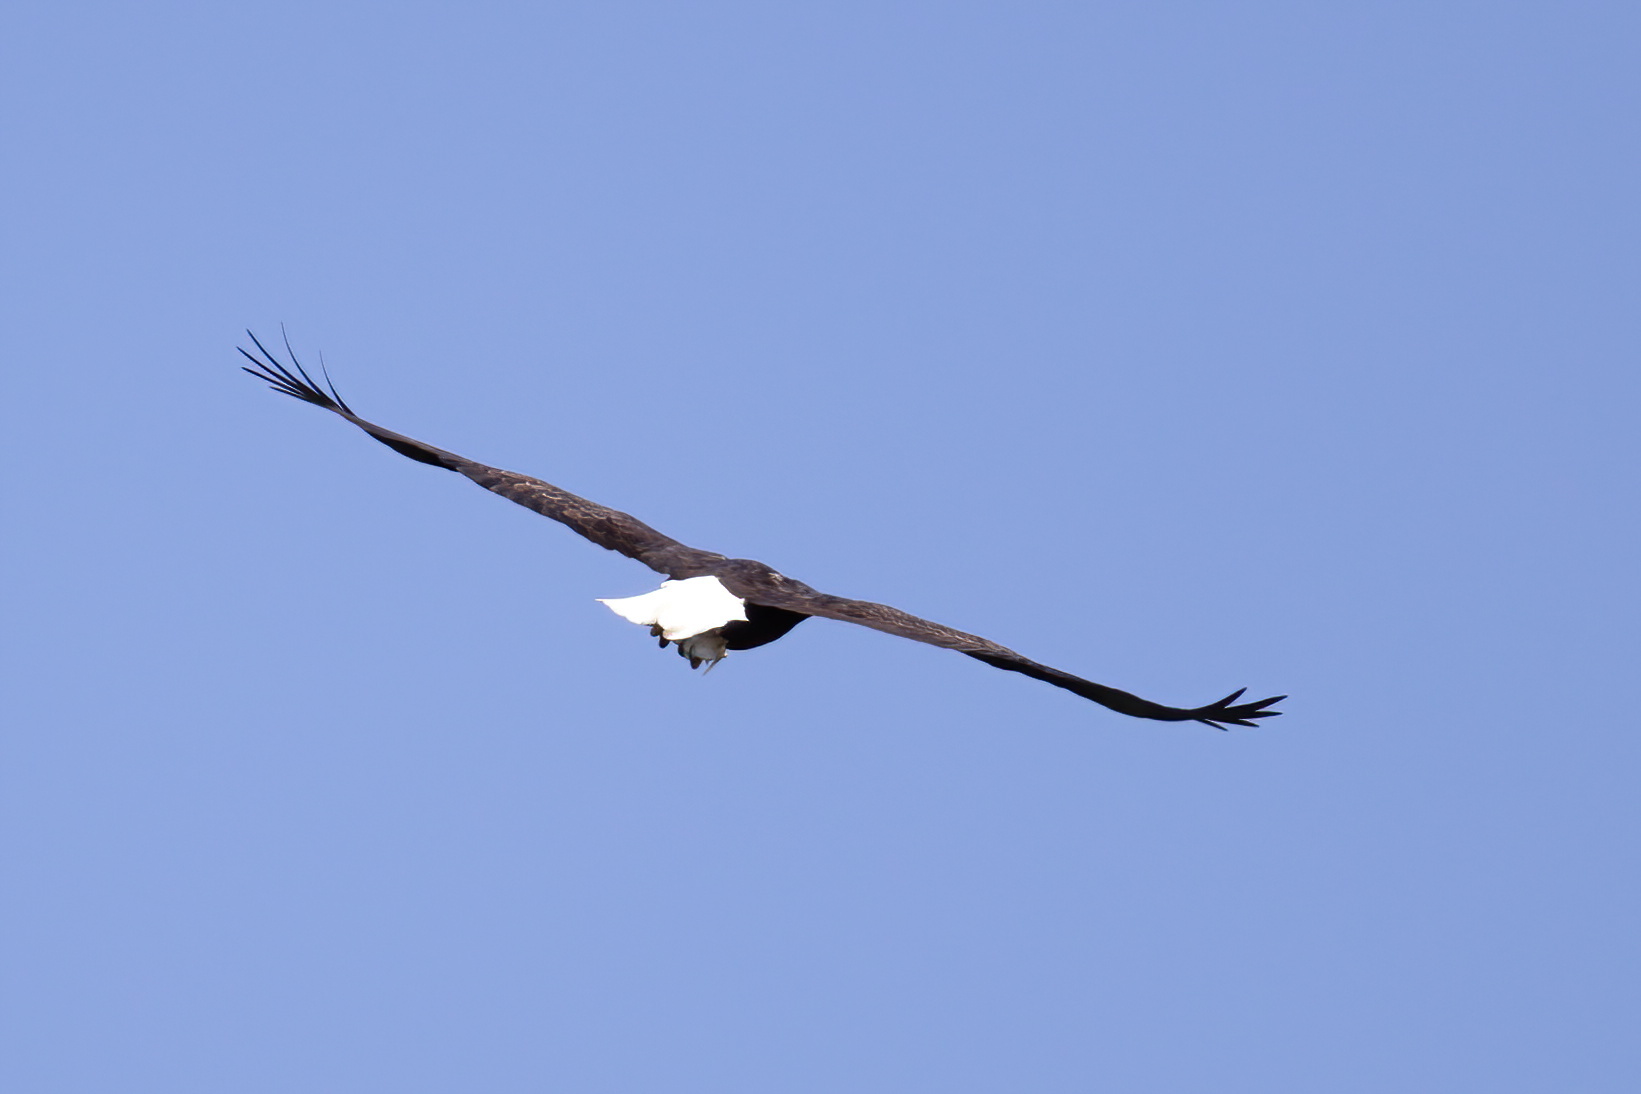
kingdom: Animalia
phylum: Chordata
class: Aves
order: Accipitriformes
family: Accipitridae
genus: Haliaeetus
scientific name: Haliaeetus leucocephalus
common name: Bald eagle
